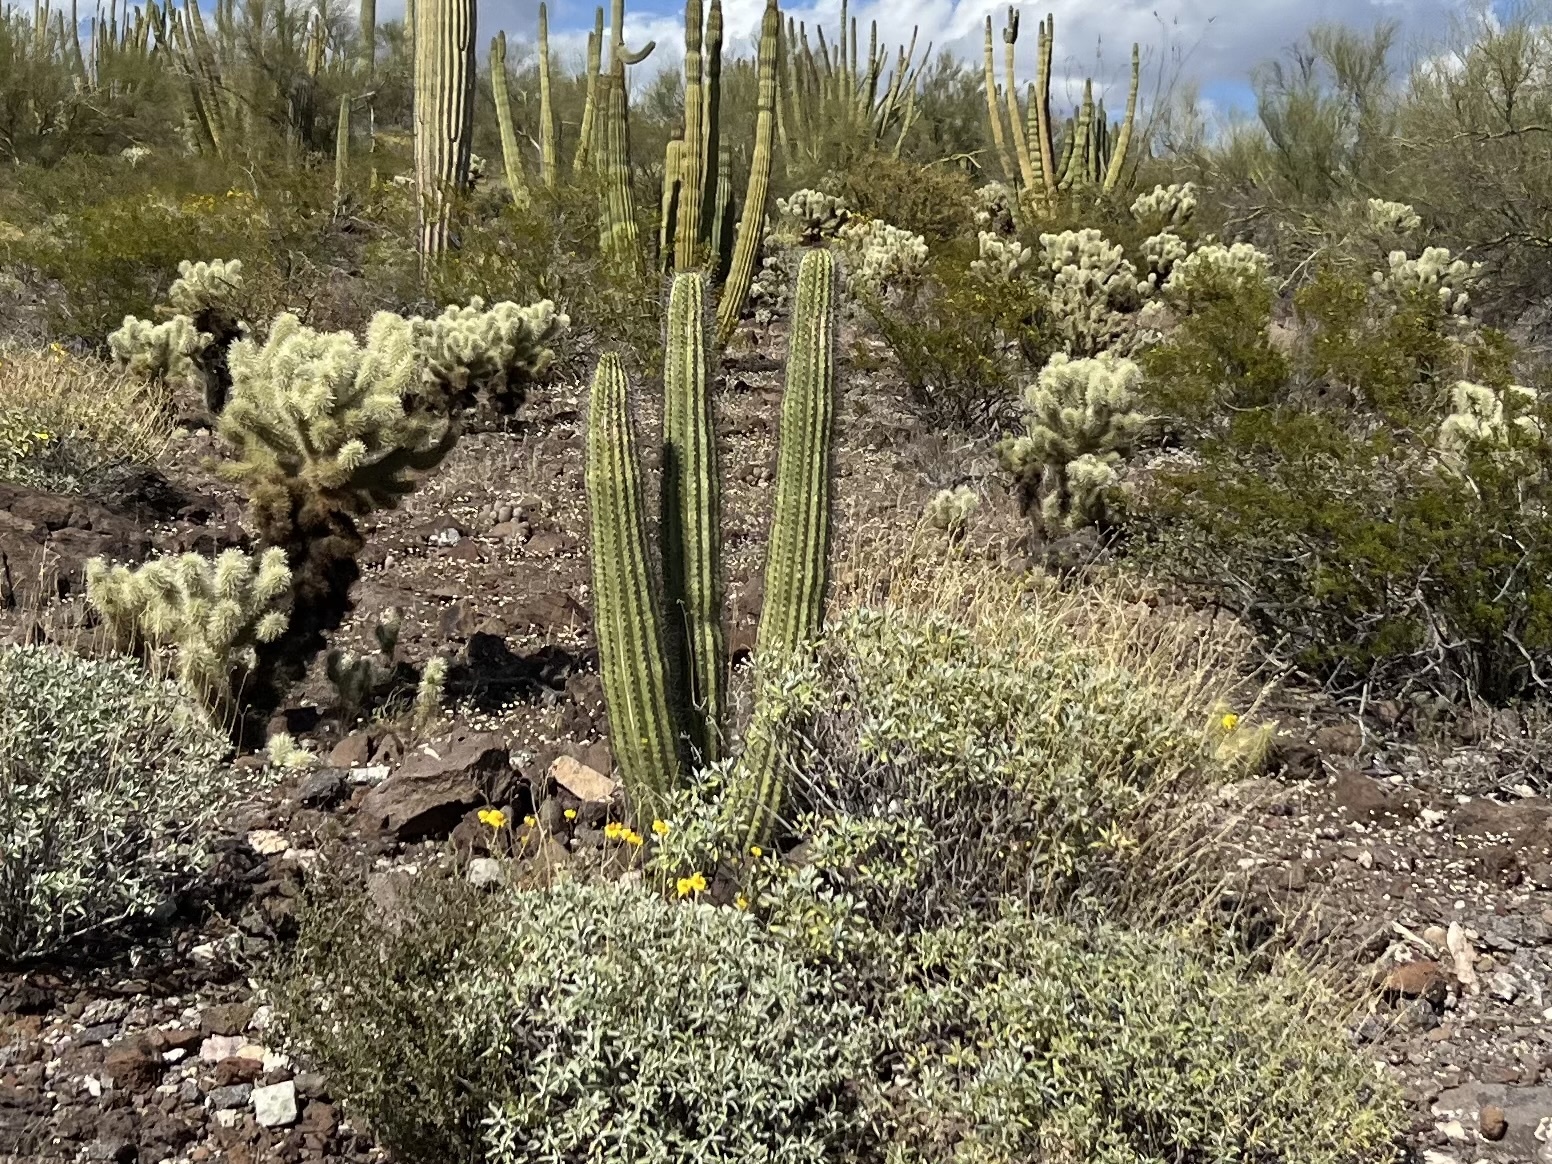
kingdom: Plantae
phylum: Tracheophyta
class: Magnoliopsida
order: Caryophyllales
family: Cactaceae
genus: Stenocereus
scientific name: Stenocereus thurberi
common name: Organ pipe cactus
